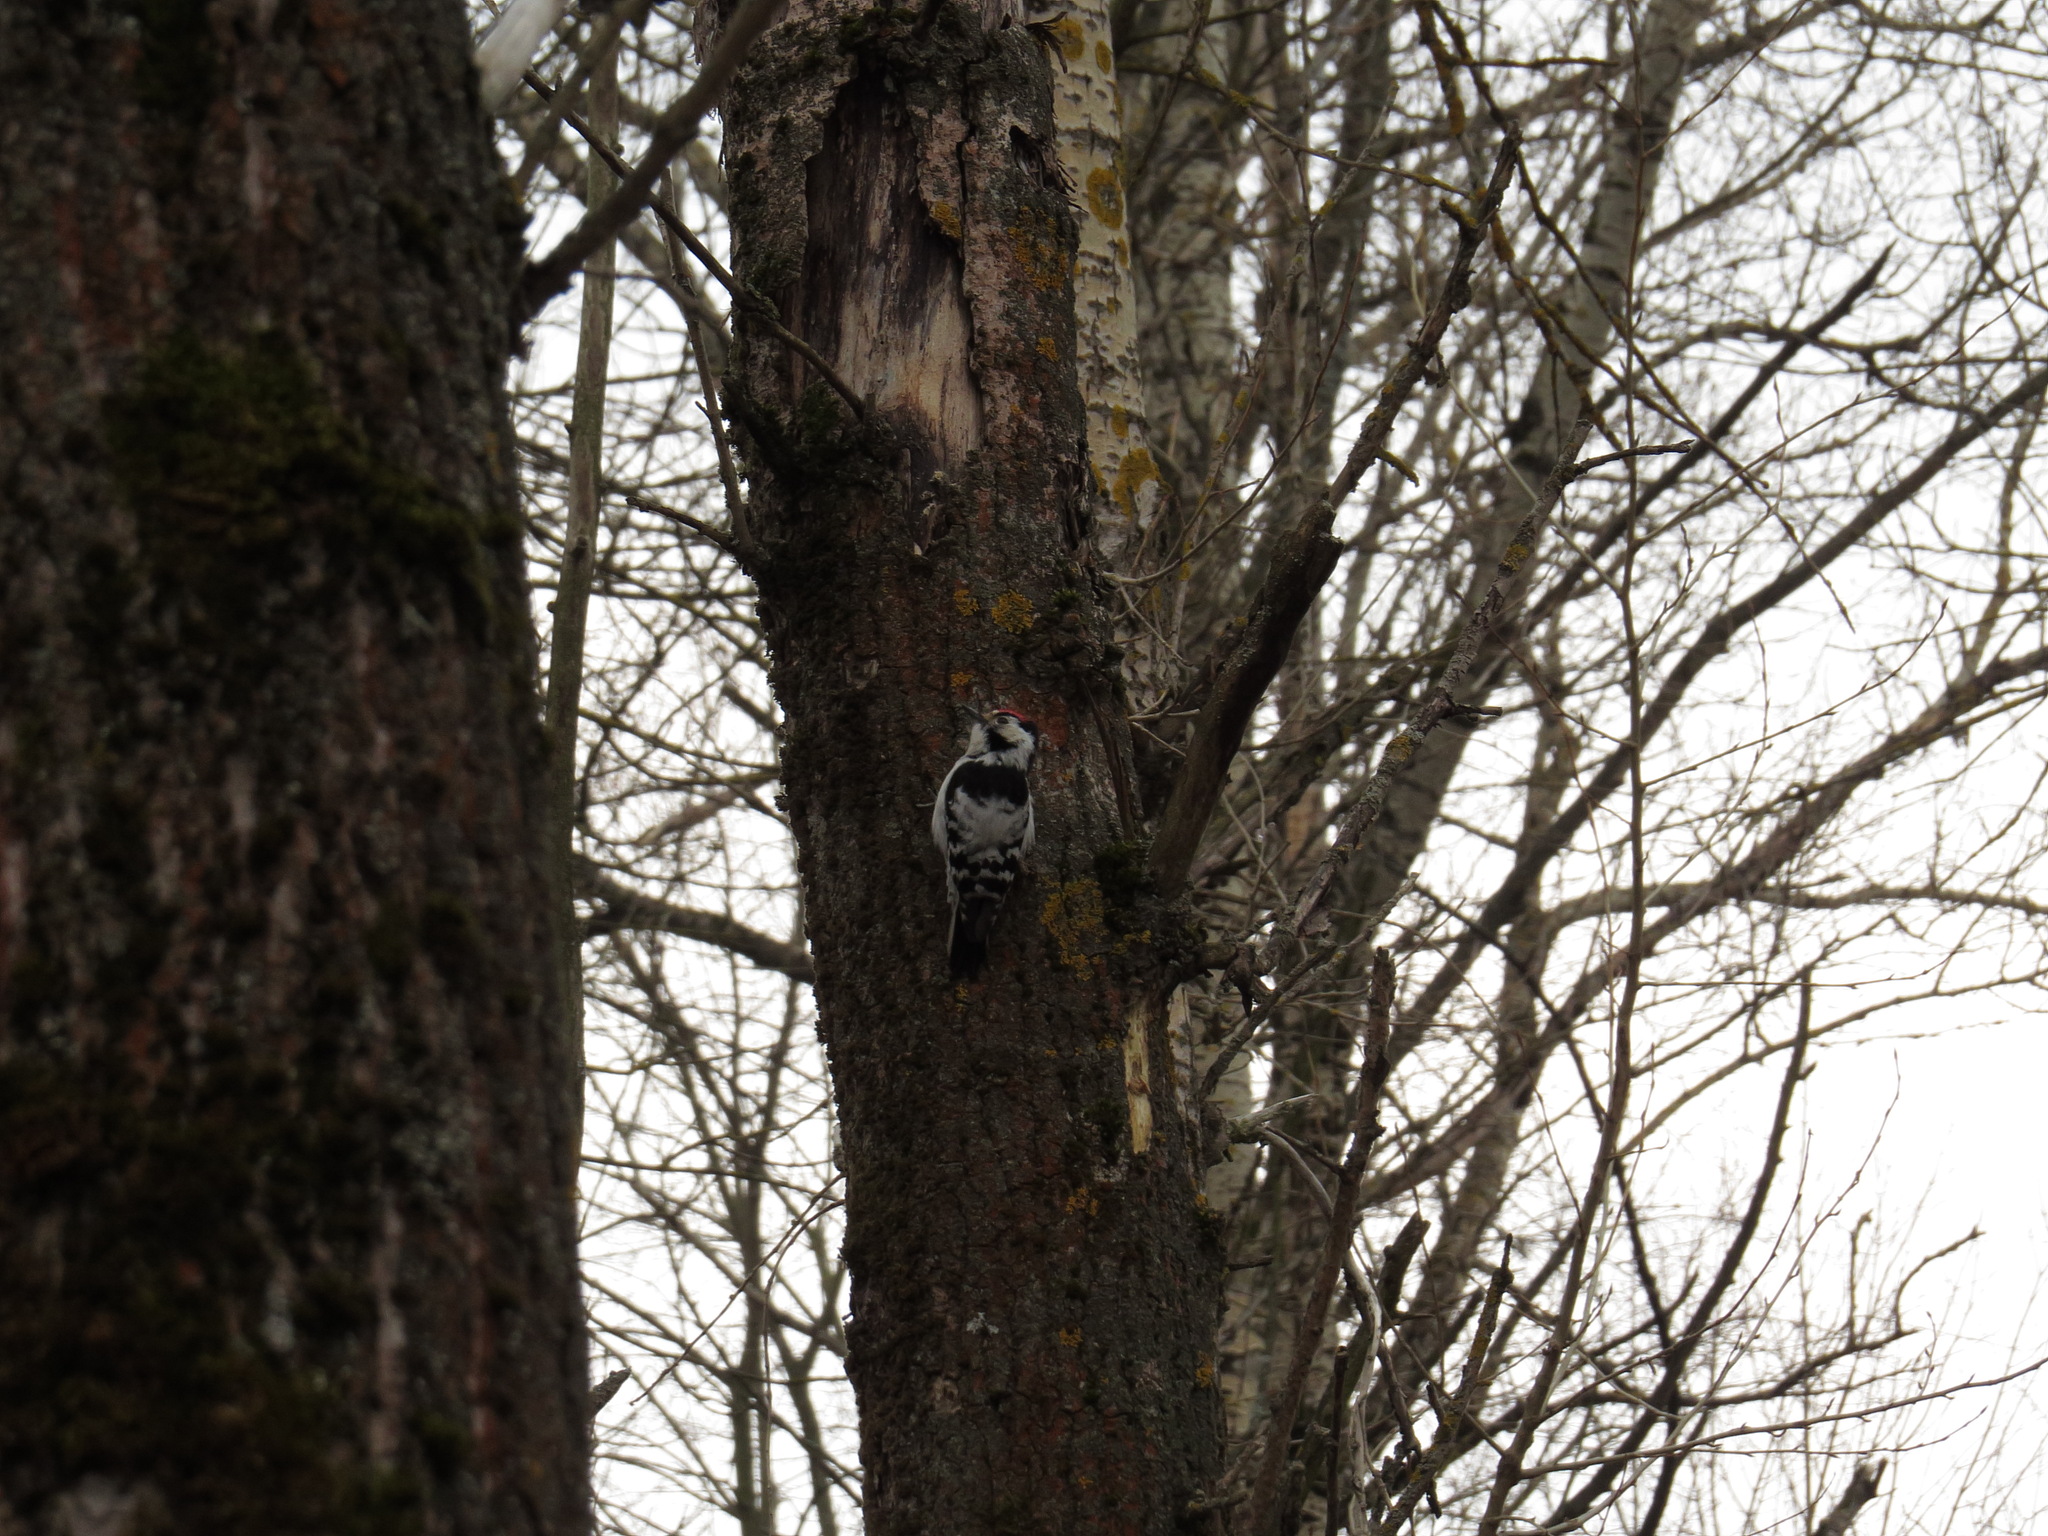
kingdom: Animalia
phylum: Chordata
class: Aves
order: Piciformes
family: Picidae
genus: Dryobates
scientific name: Dryobates minor
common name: Lesser spotted woodpecker
